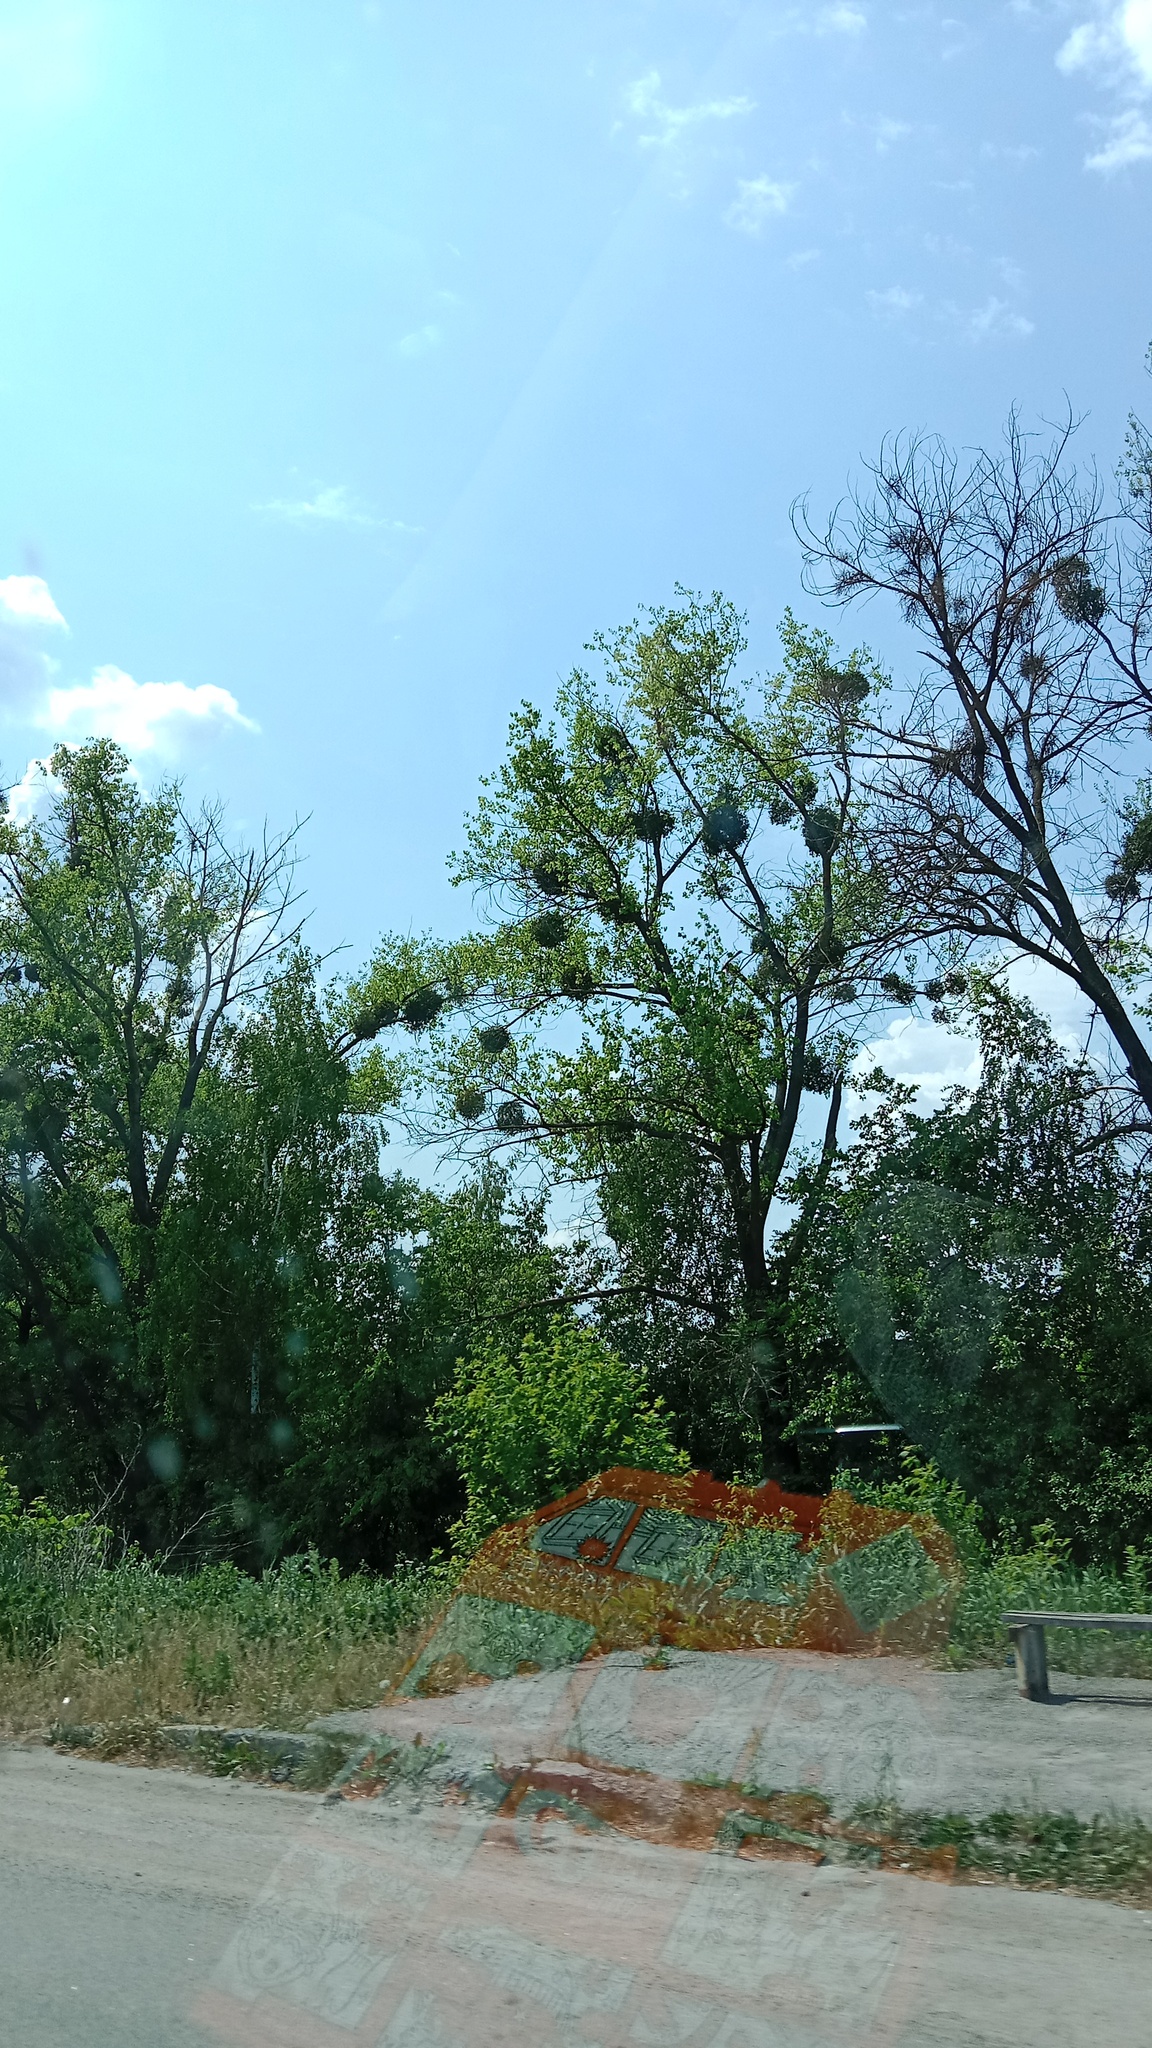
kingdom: Plantae
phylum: Tracheophyta
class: Magnoliopsida
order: Santalales
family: Viscaceae
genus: Viscum
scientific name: Viscum album
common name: Mistletoe
